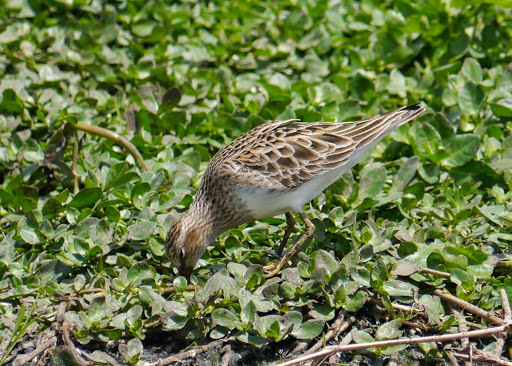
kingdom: Animalia
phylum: Chordata
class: Aves
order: Charadriiformes
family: Scolopacidae
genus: Calidris
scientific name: Calidris melanotos
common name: Pectoral sandpiper
